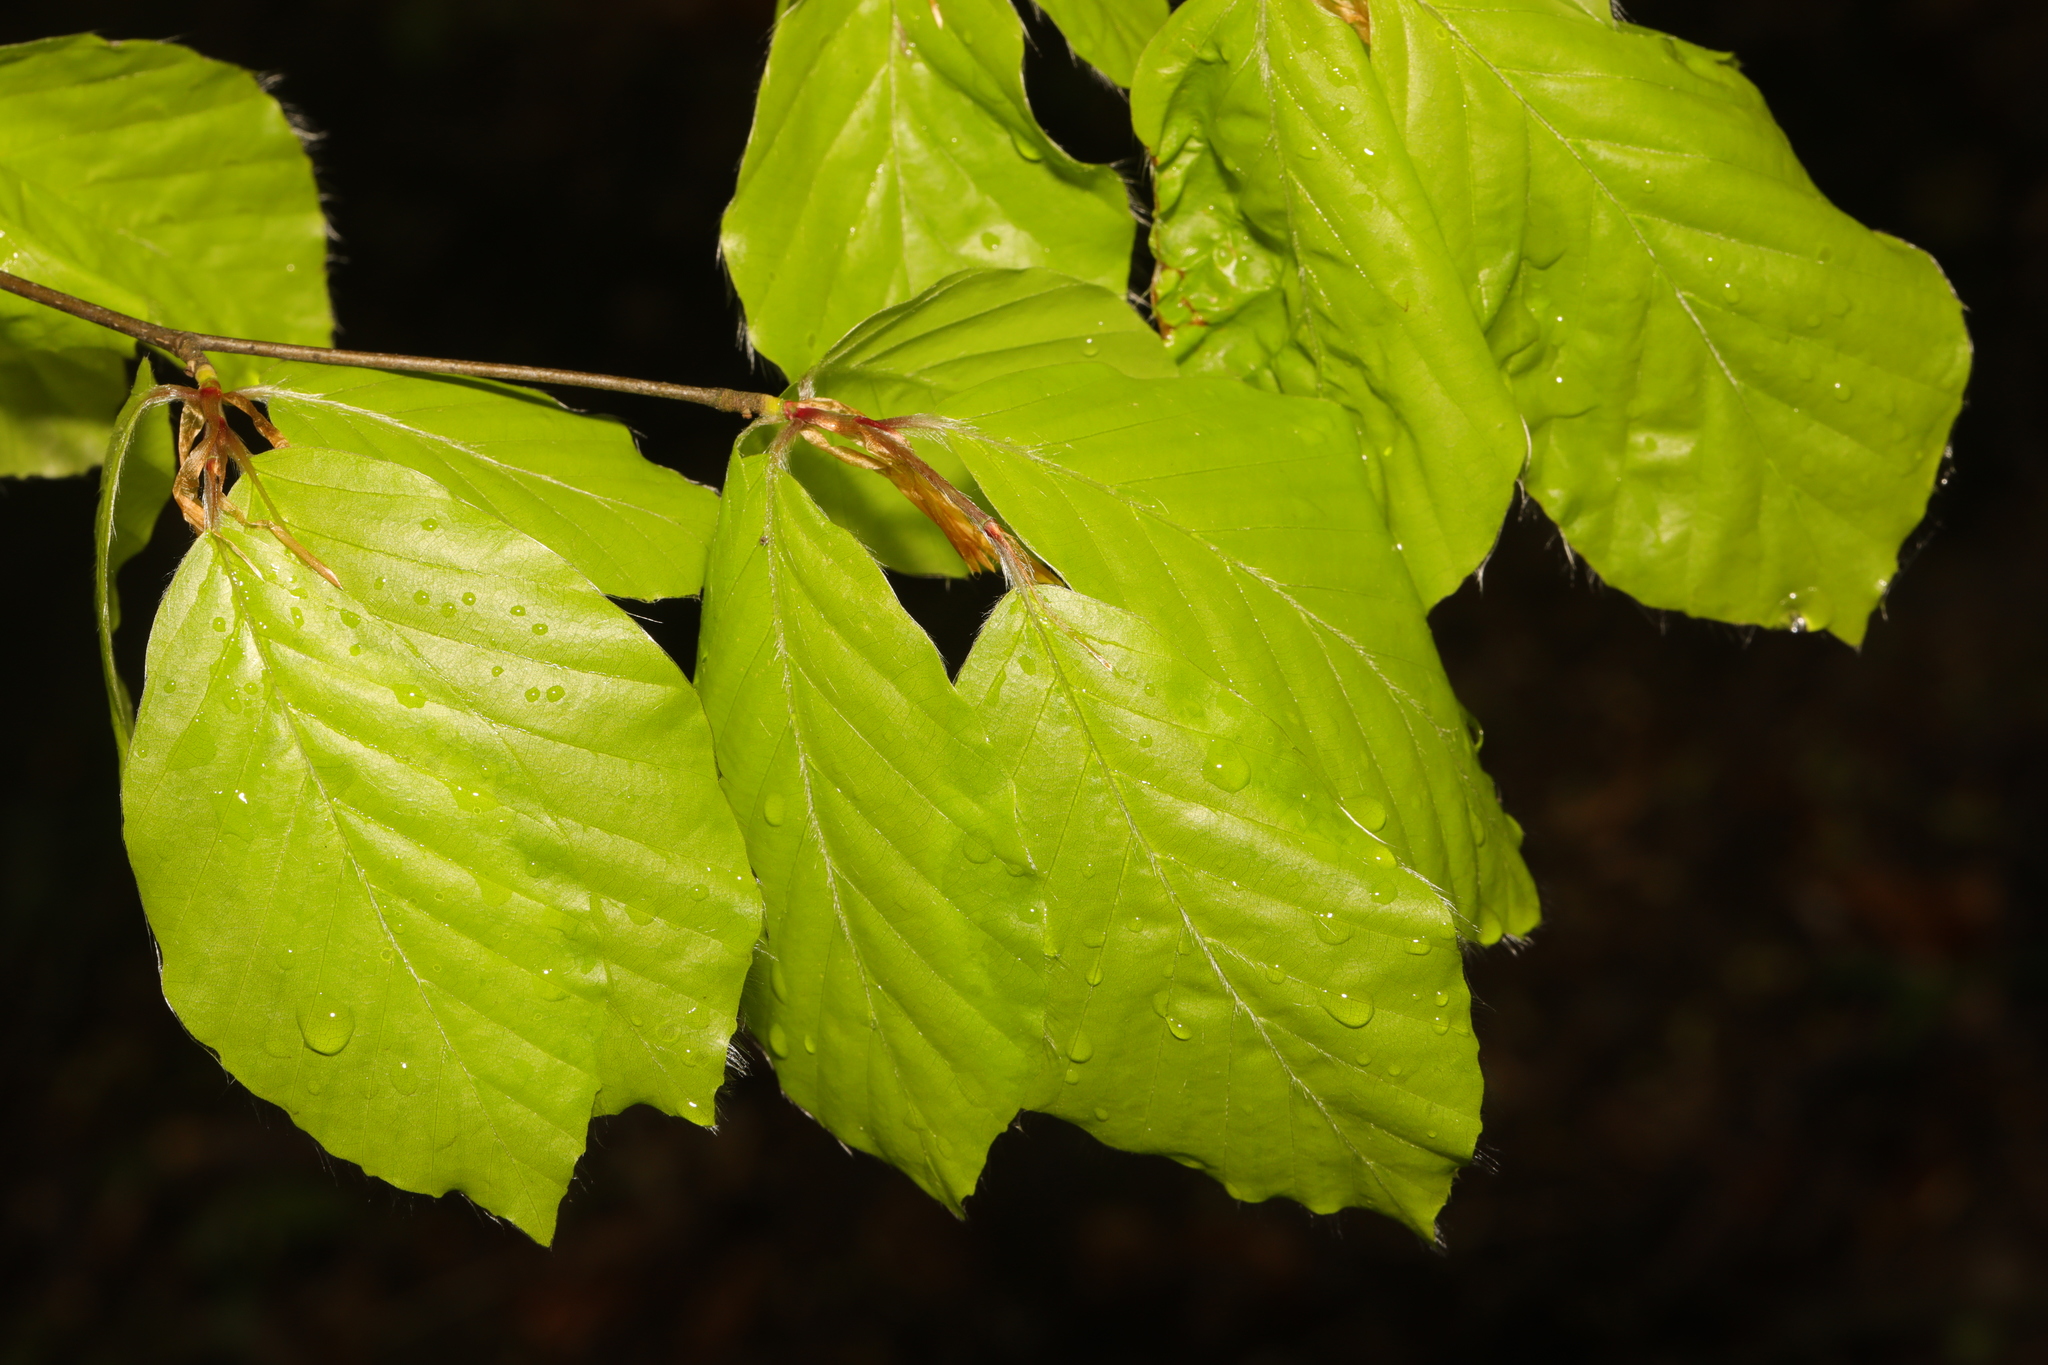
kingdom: Plantae
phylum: Tracheophyta
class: Magnoliopsida
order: Fagales
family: Fagaceae
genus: Fagus
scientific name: Fagus sylvatica
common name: Beech
